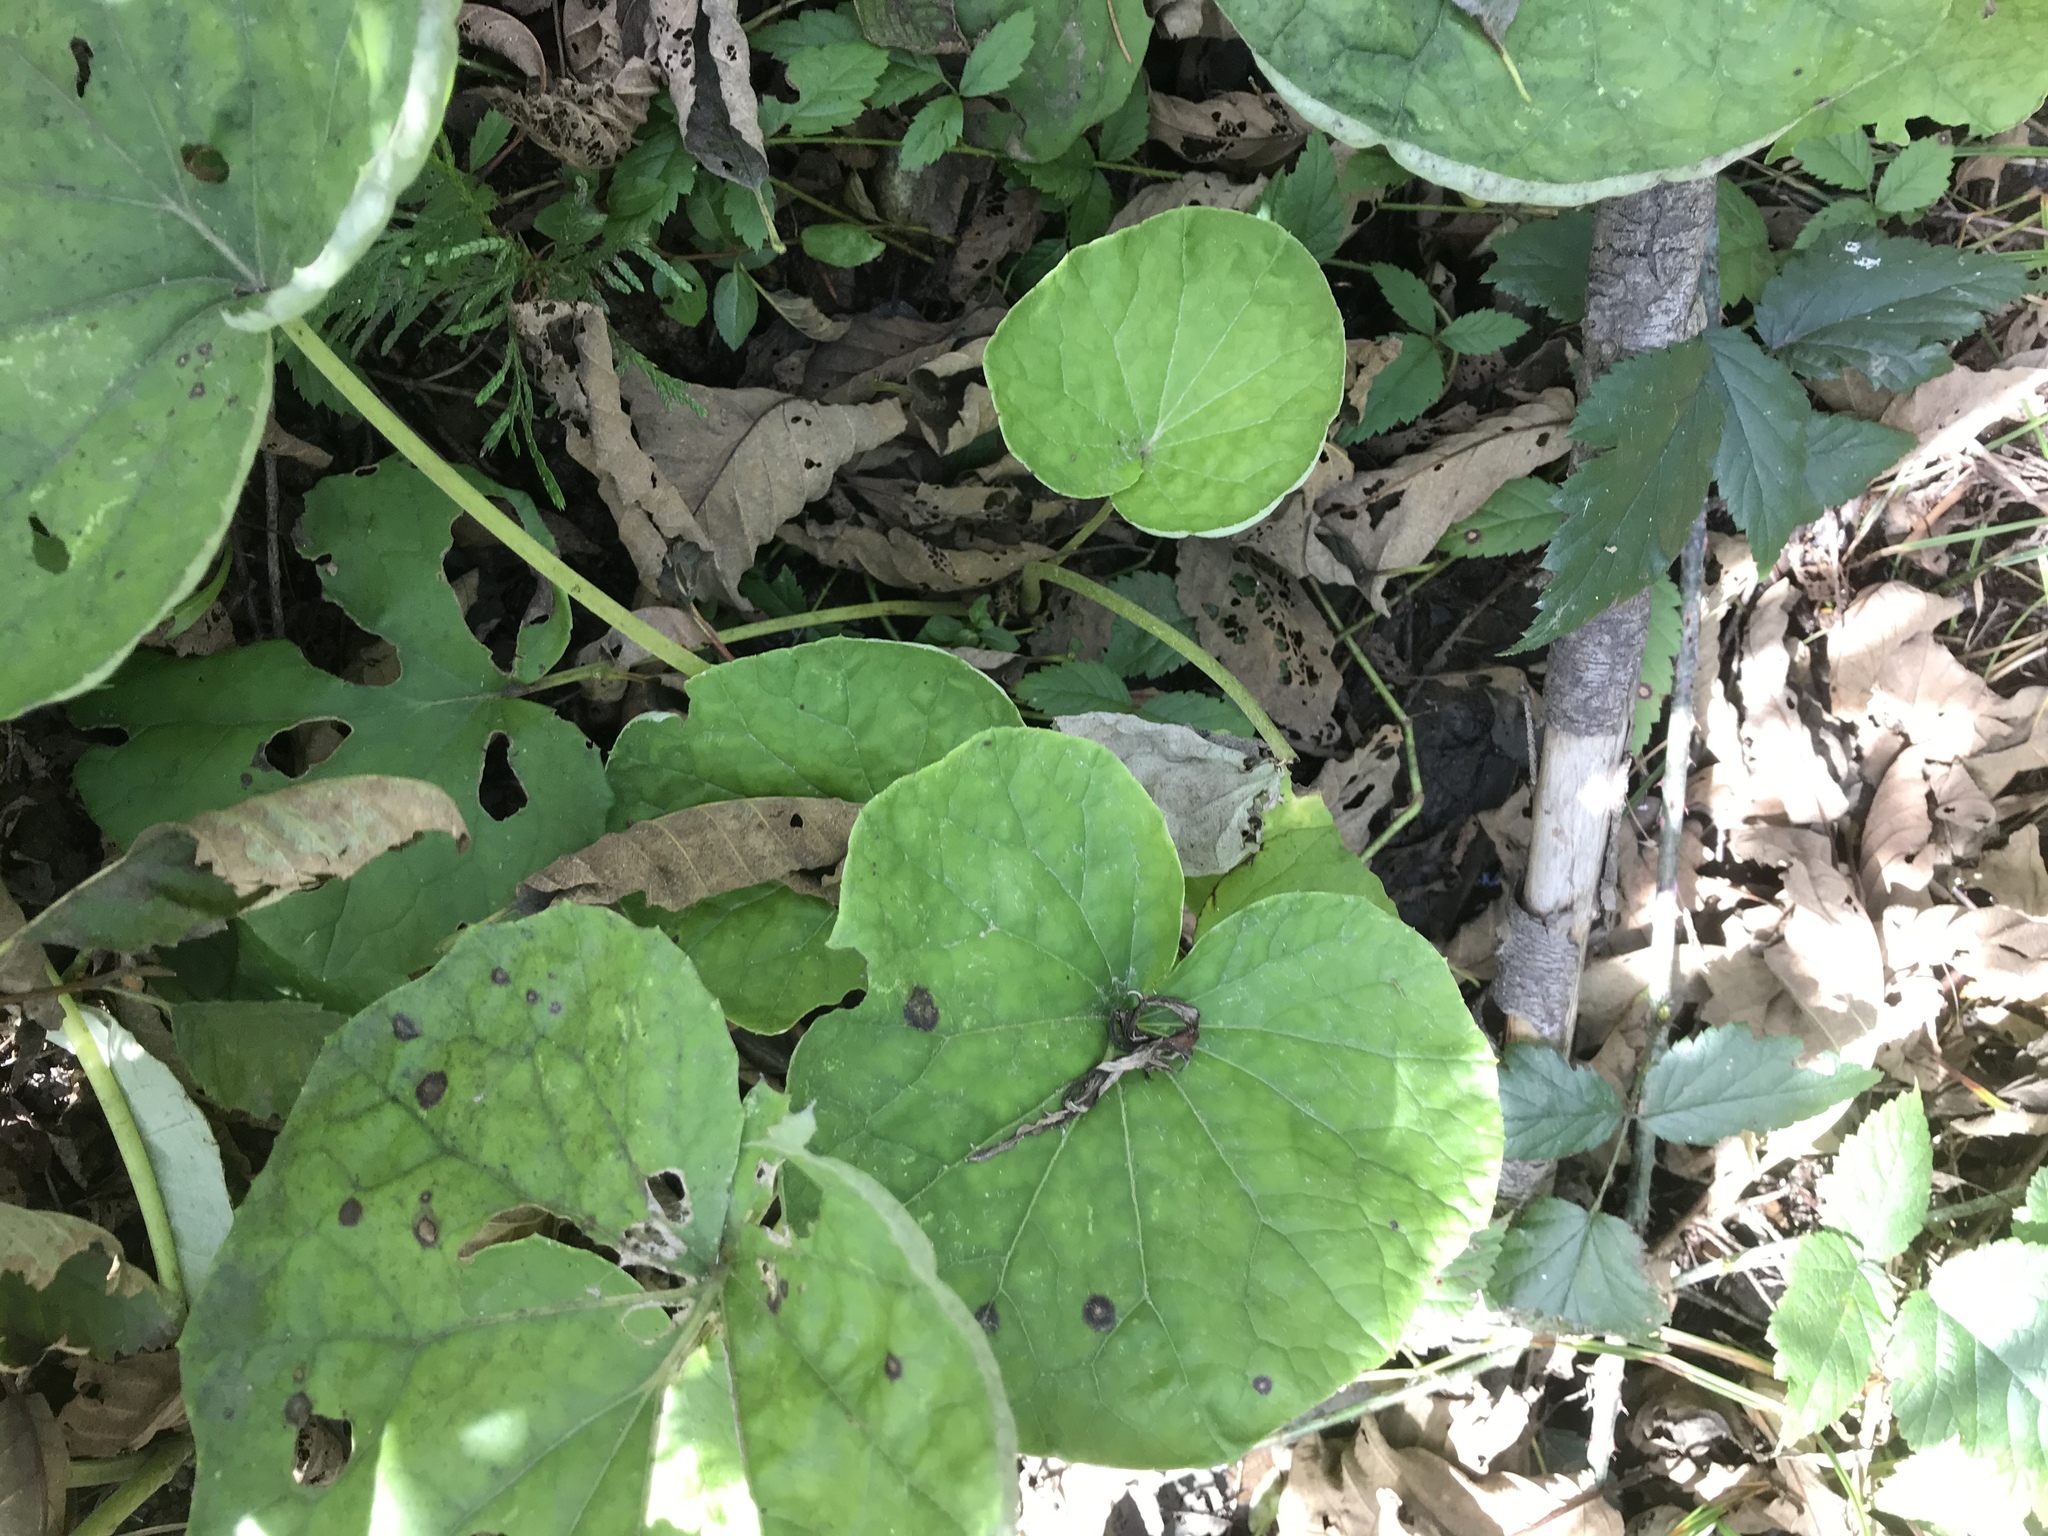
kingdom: Plantae
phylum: Tracheophyta
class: Magnoliopsida
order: Asterales
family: Asteraceae
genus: Tussilago
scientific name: Tussilago farfara
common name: Coltsfoot
